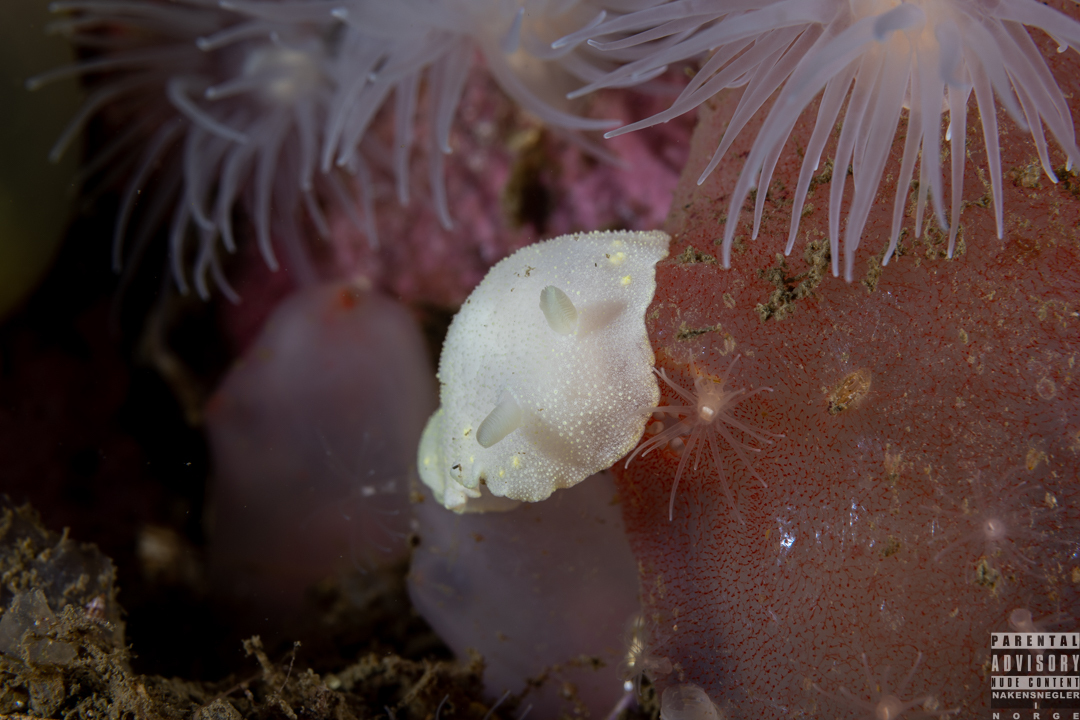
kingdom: Animalia
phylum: Mollusca
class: Gastropoda
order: Nudibranchia
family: Cadlinidae
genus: Cadlina
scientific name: Cadlina laevis
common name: White atlantic cadlina
